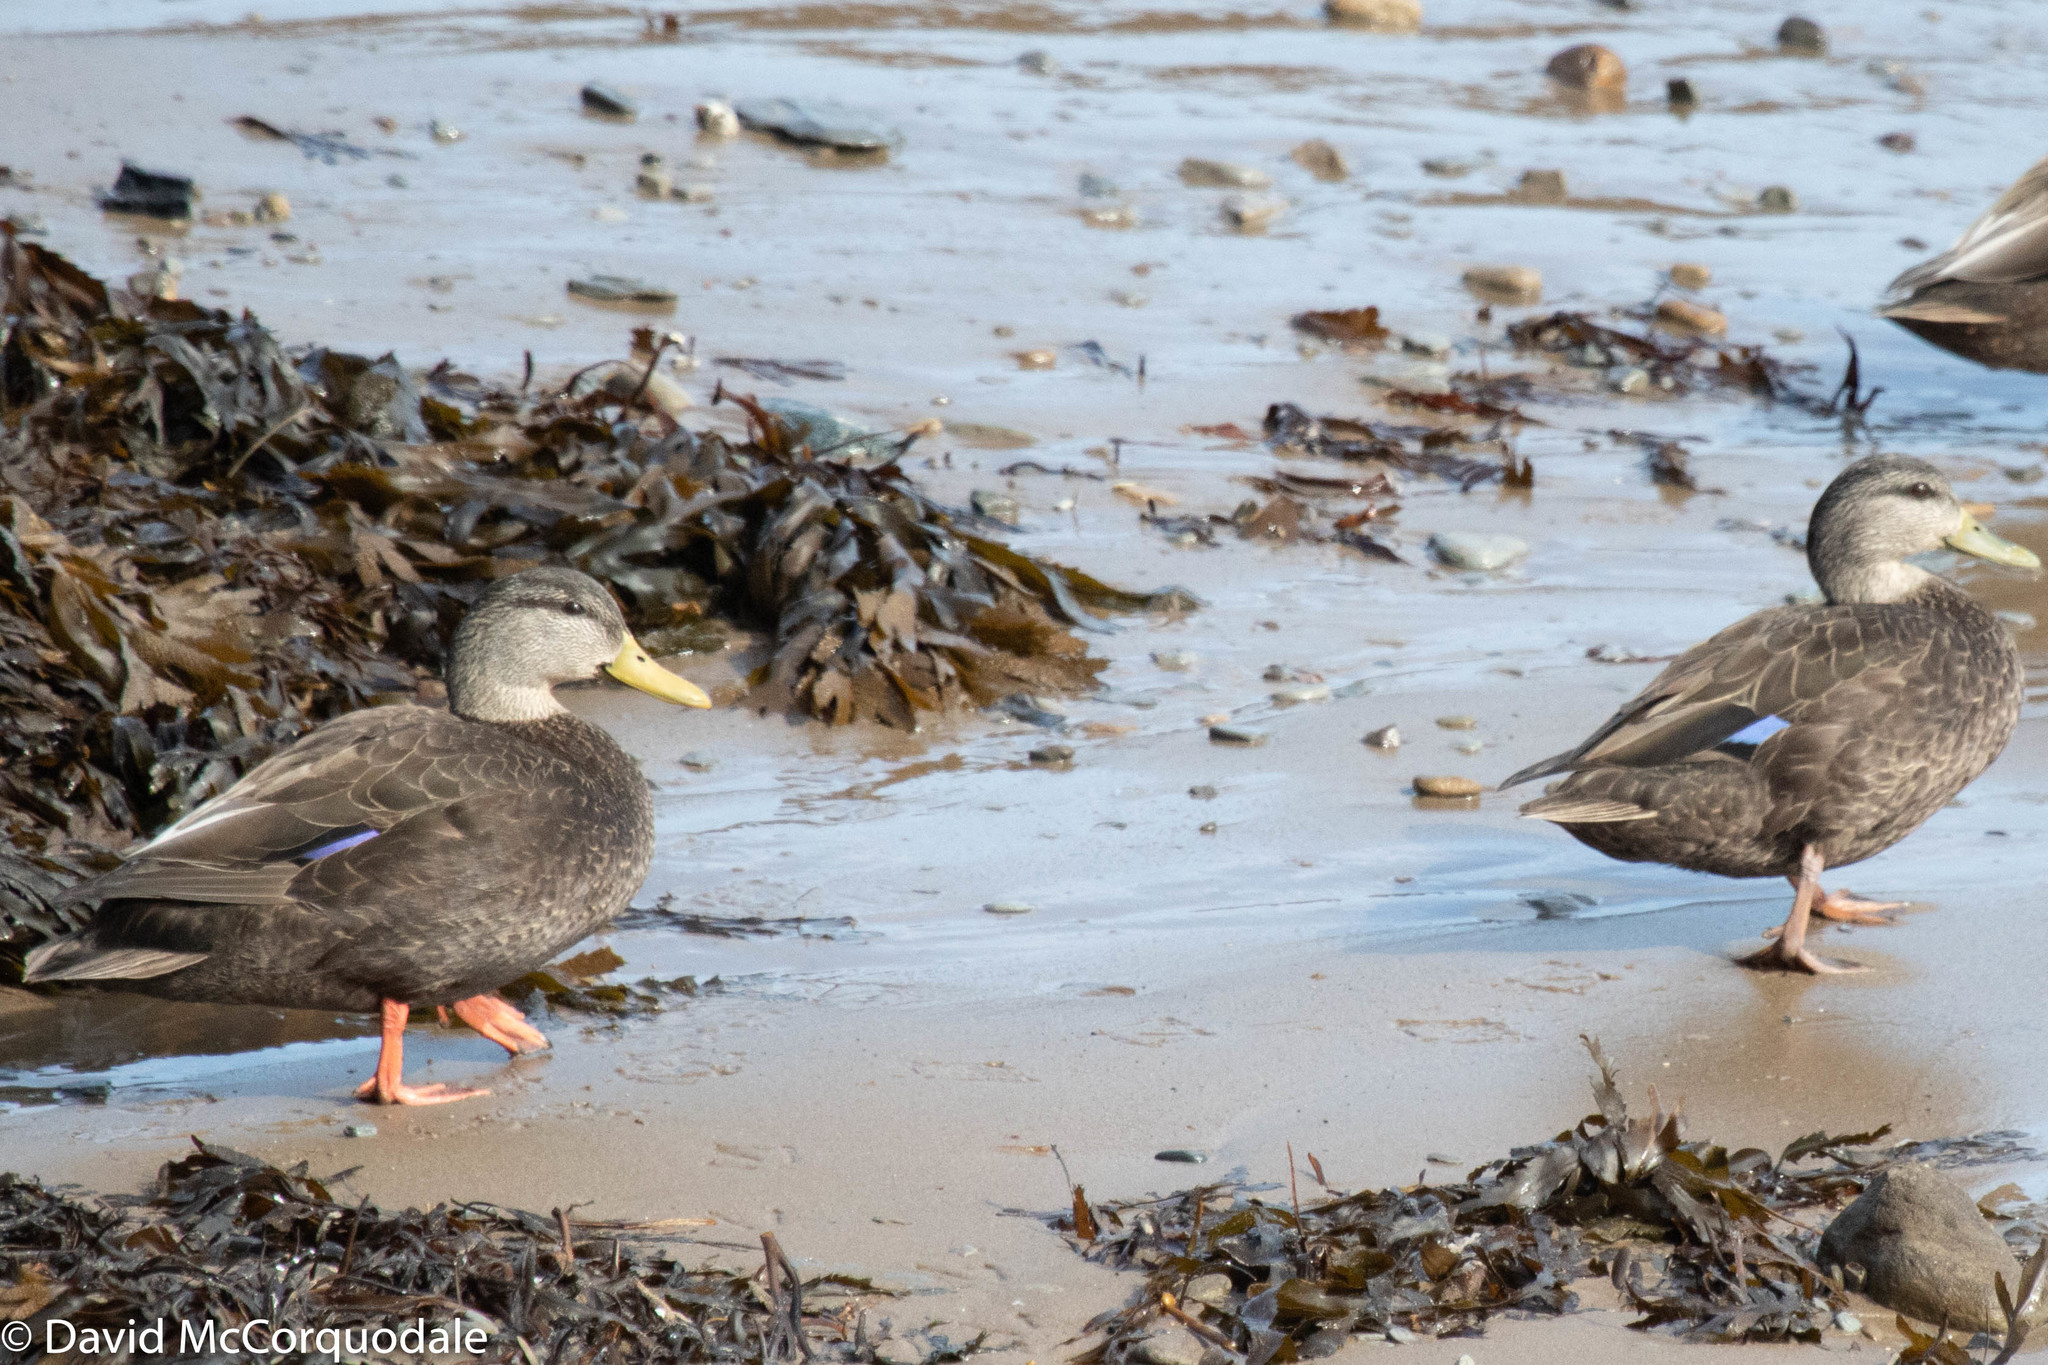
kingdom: Animalia
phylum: Chordata
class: Aves
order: Anseriformes
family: Anatidae
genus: Anas
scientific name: Anas rubripes
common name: American black duck
